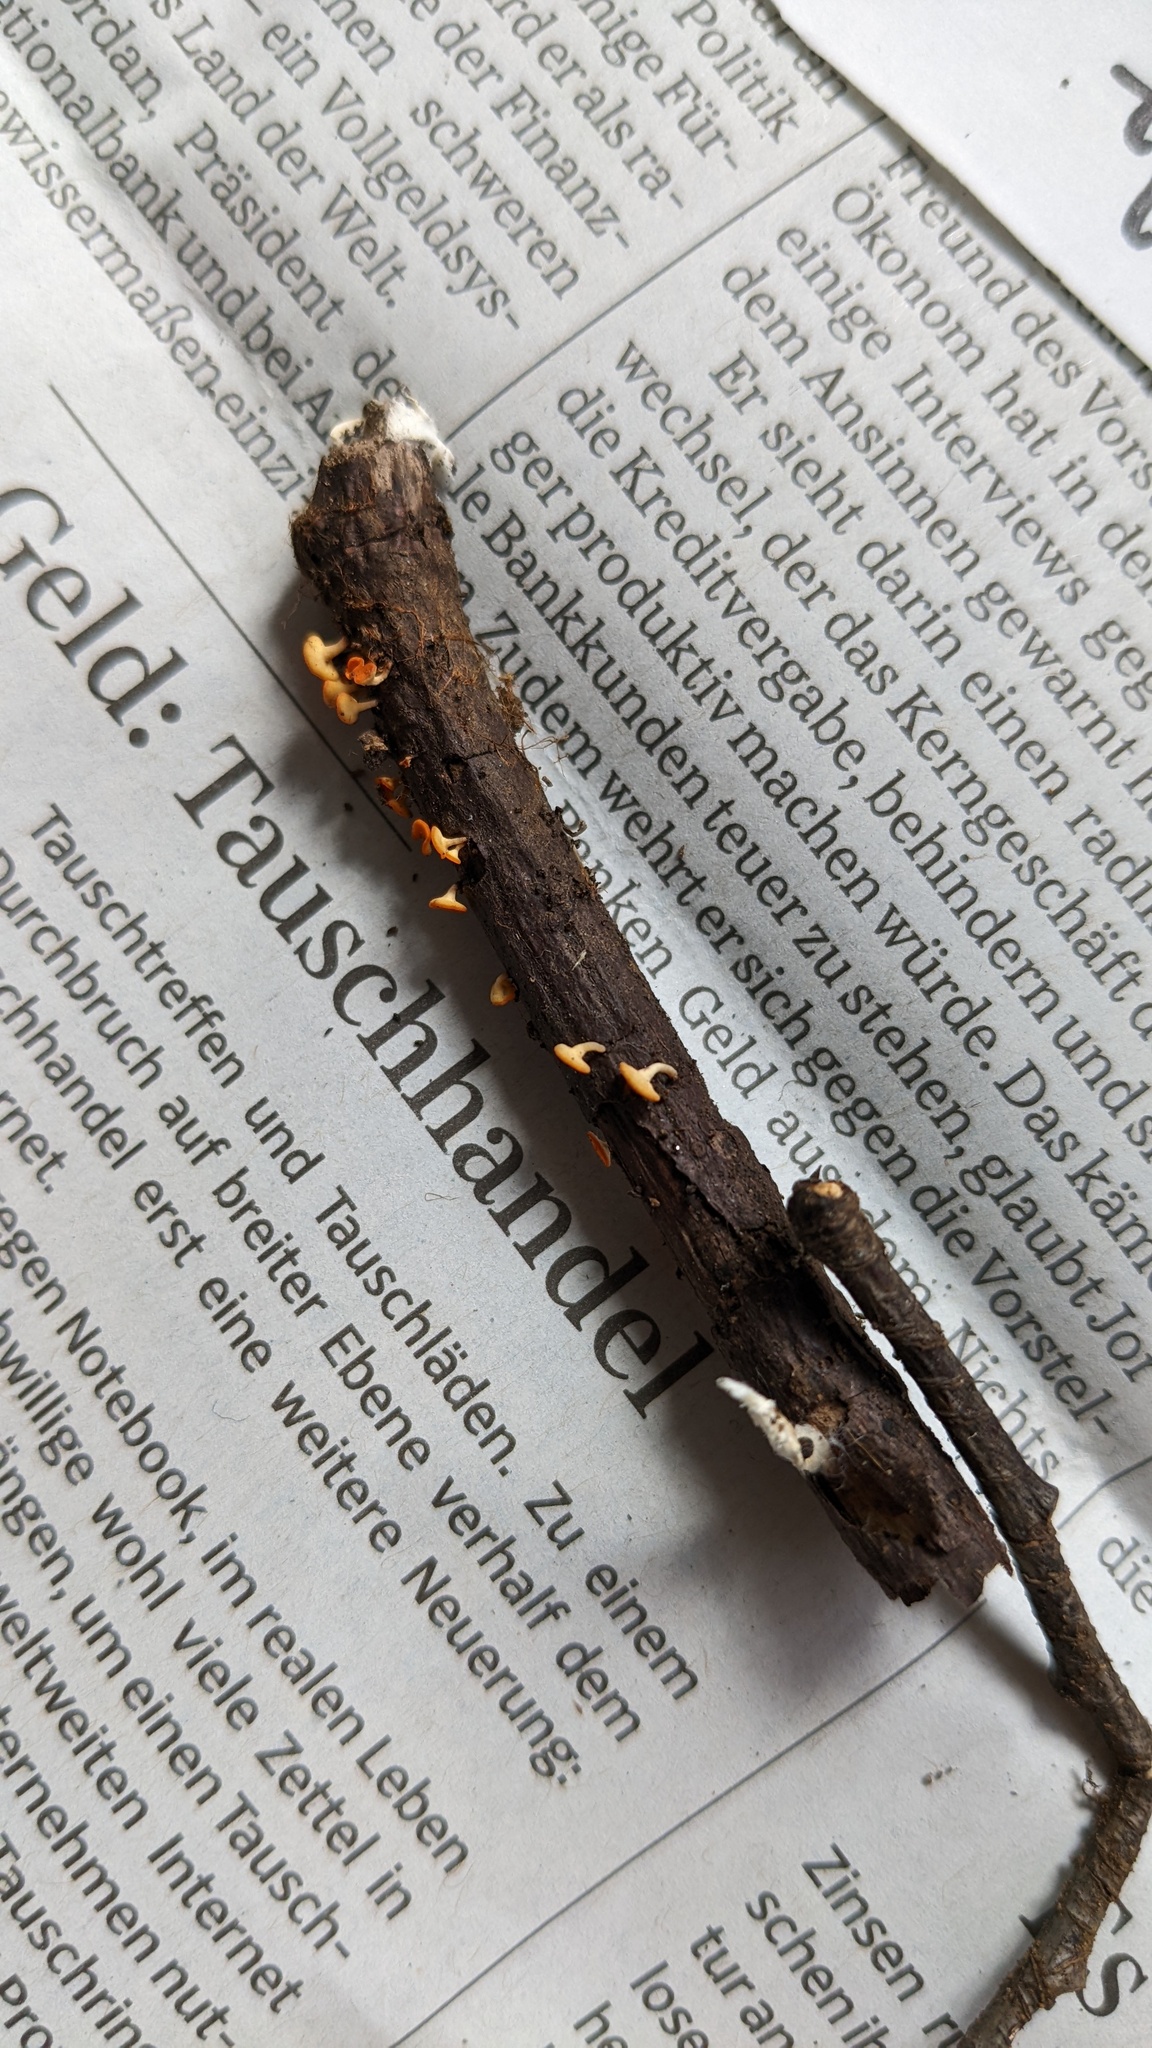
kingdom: Fungi
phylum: Ascomycota
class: Leotiomycetes
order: Helotiales
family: Helotiaceae
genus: Dicephalospora
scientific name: Dicephalospora rufocornea
